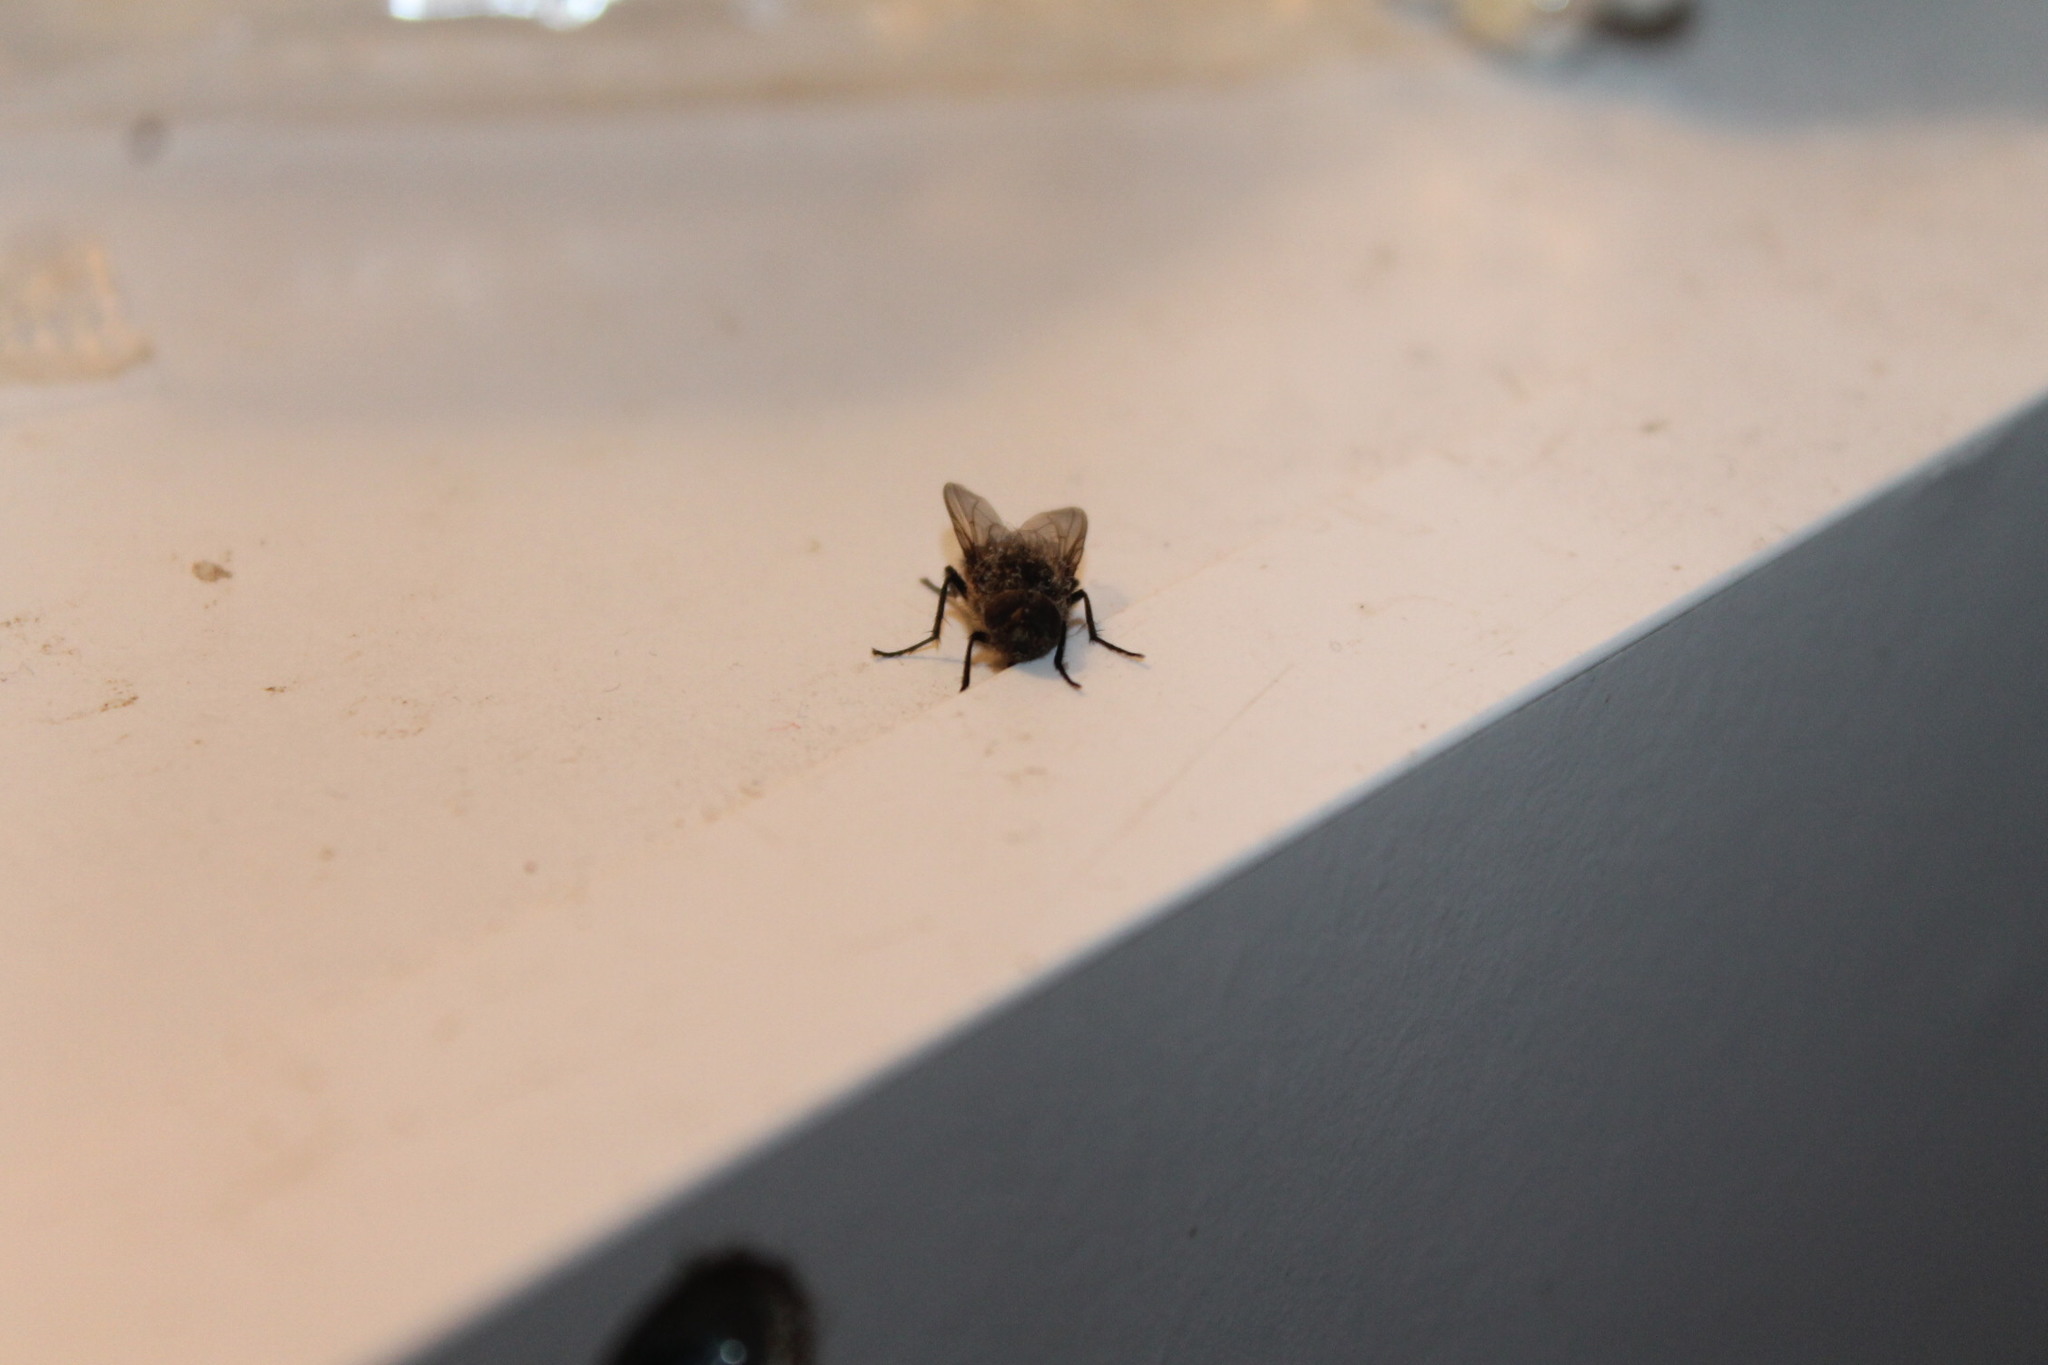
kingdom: Animalia
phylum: Arthropoda
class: Insecta
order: Diptera
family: Polleniidae
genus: Pollenia
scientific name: Pollenia
